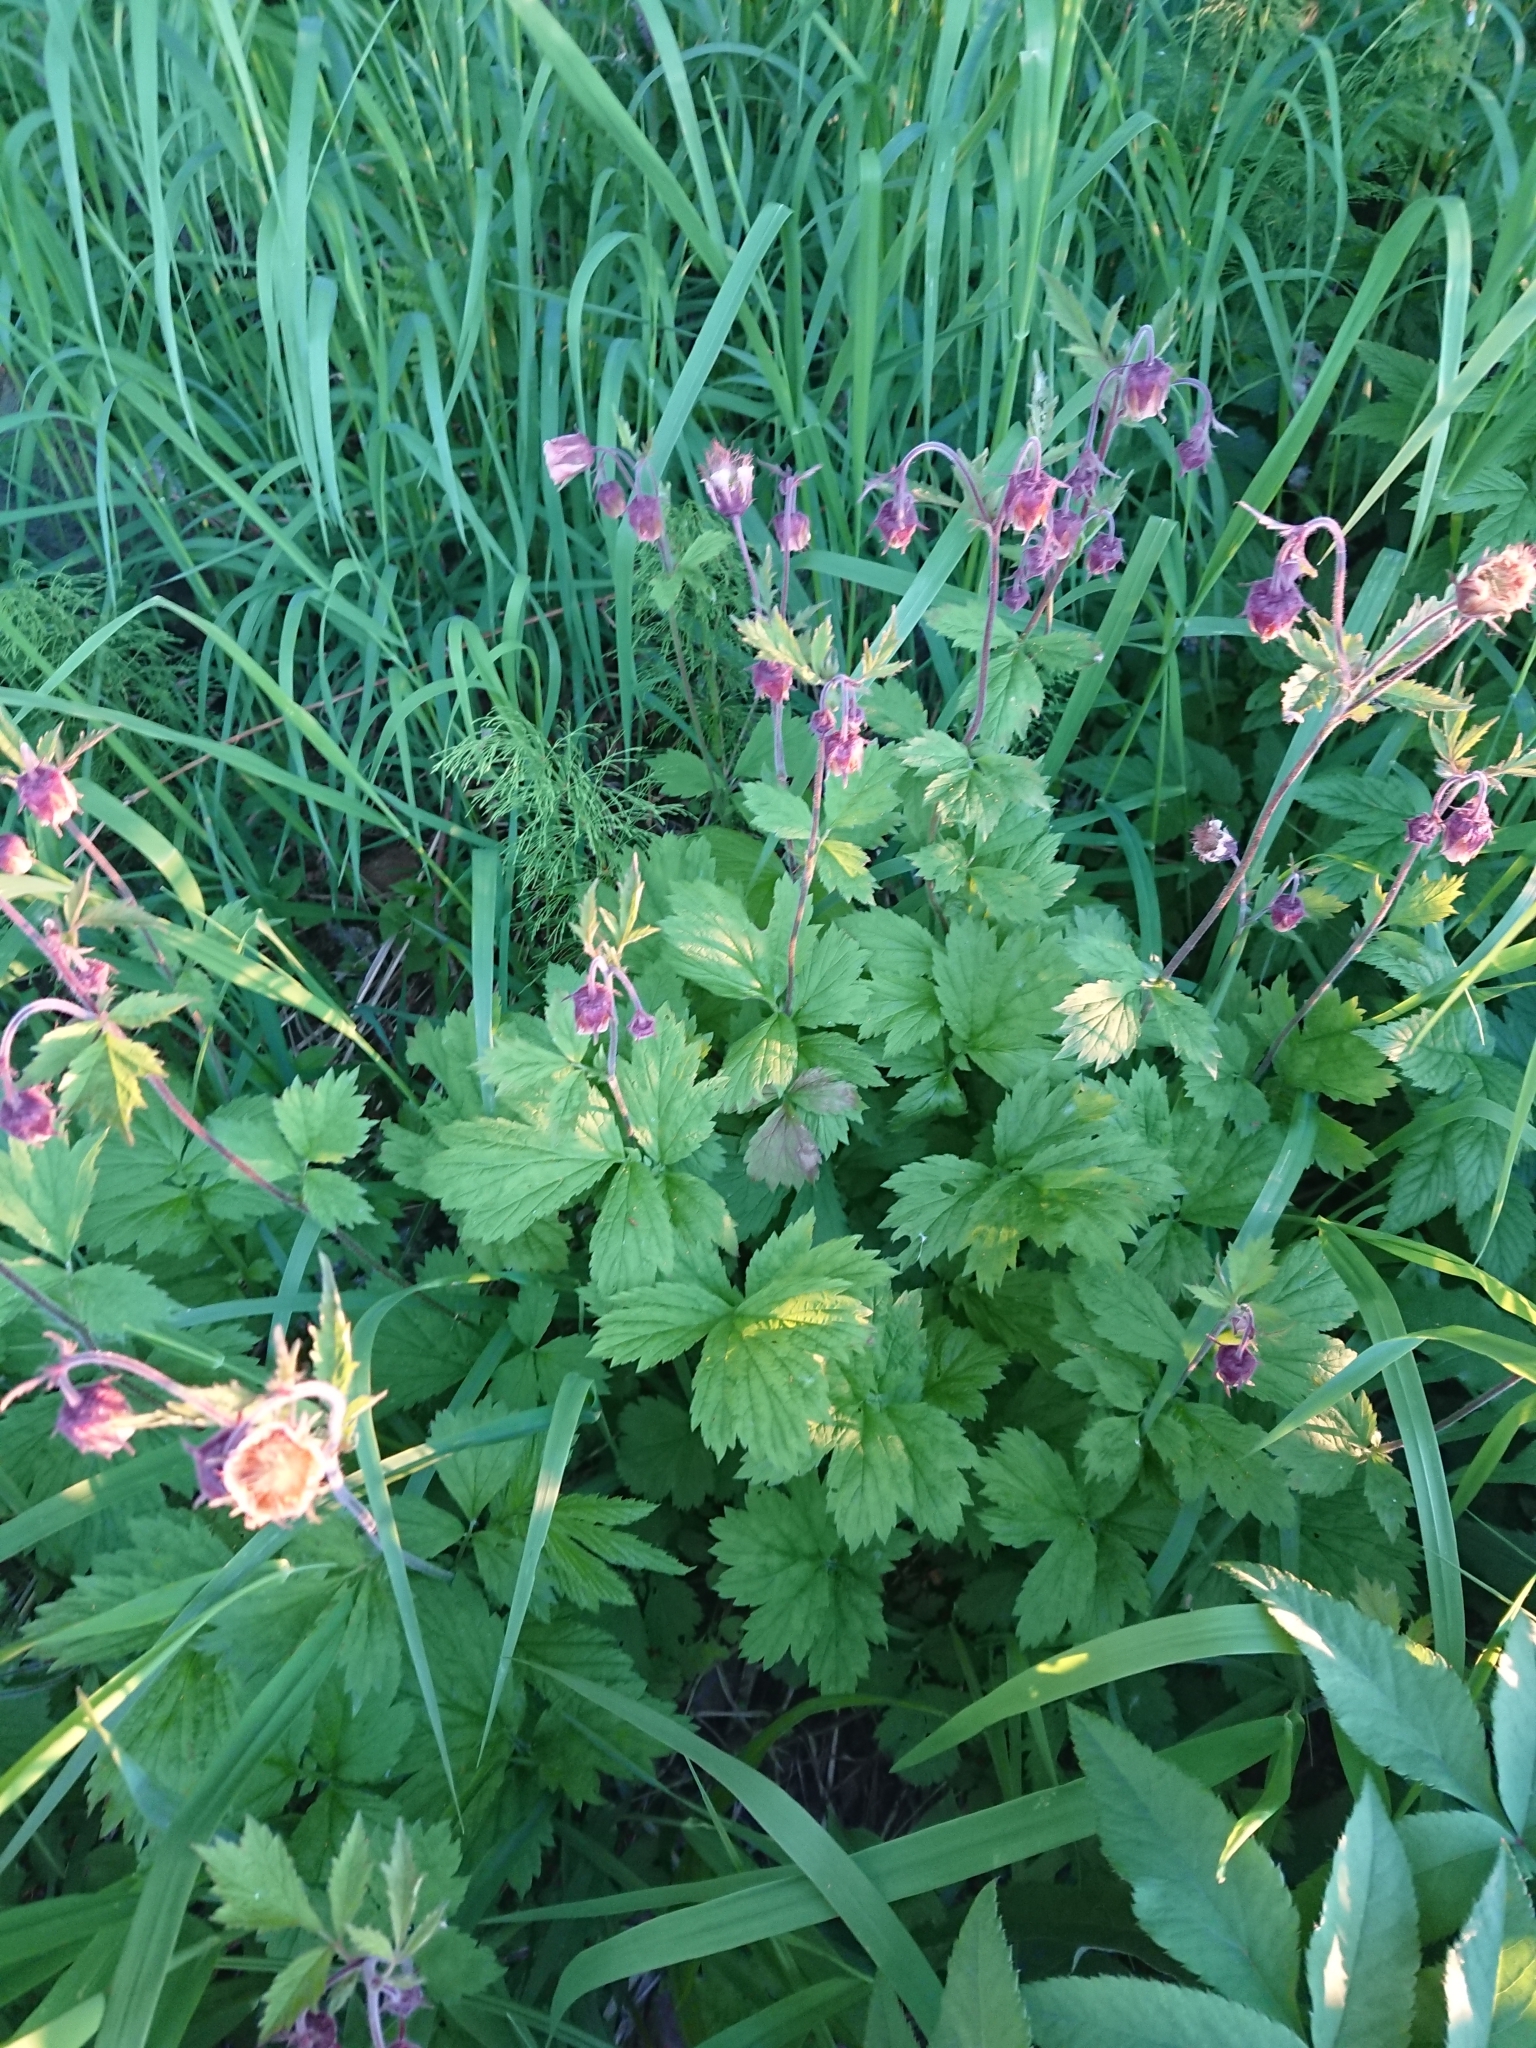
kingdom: Plantae
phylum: Tracheophyta
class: Magnoliopsida
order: Rosales
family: Rosaceae
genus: Geum
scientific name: Geum rivale
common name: Water avens
